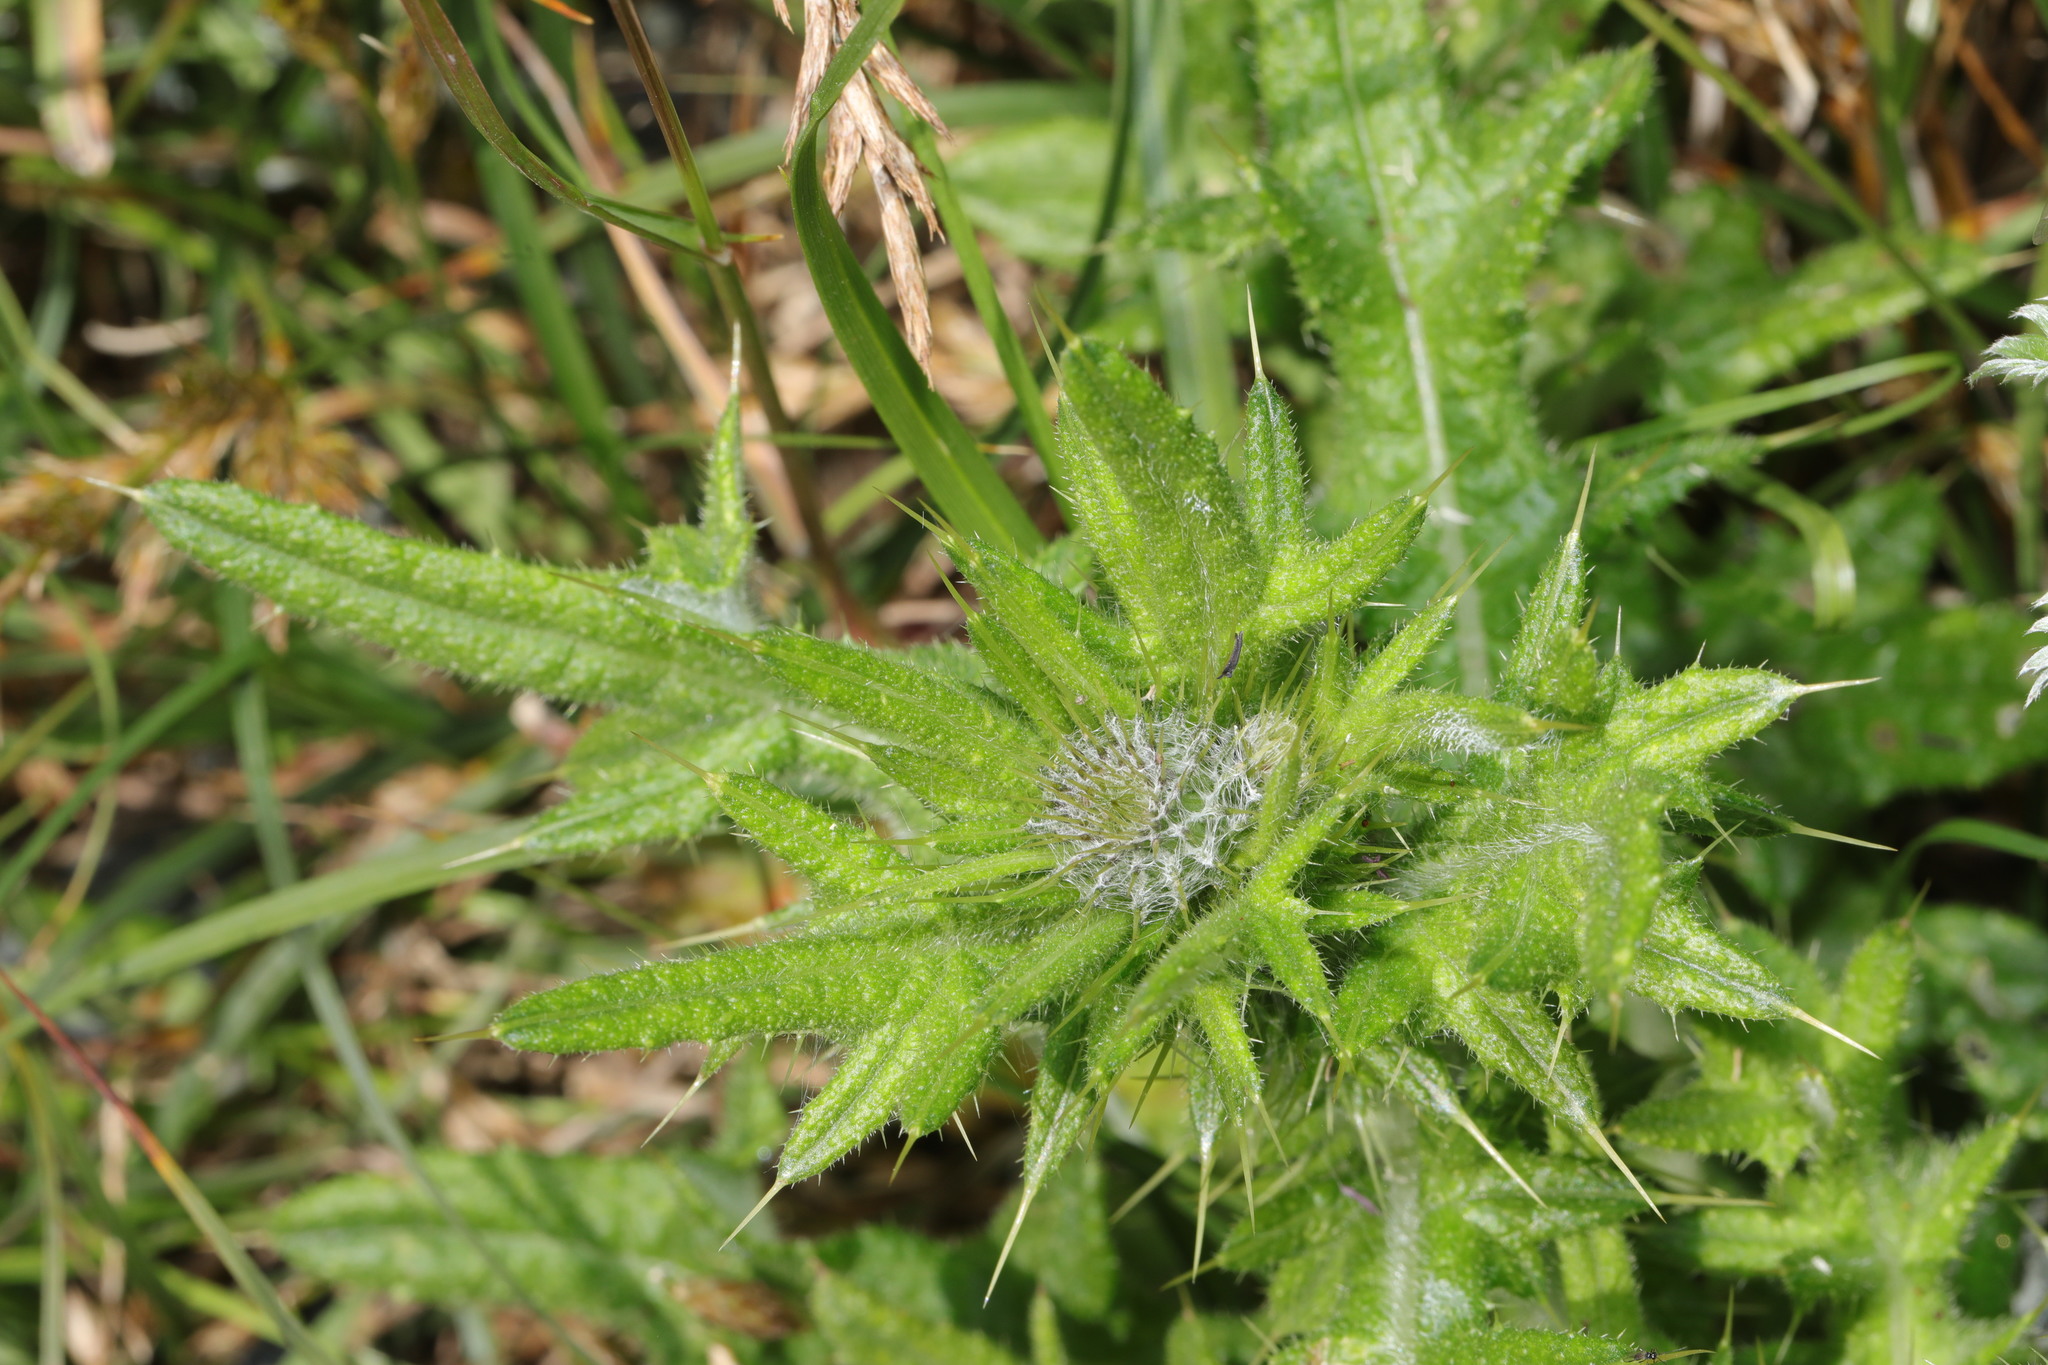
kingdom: Plantae
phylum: Tracheophyta
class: Magnoliopsida
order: Asterales
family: Asteraceae
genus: Cirsium
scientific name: Cirsium vulgare
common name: Bull thistle
